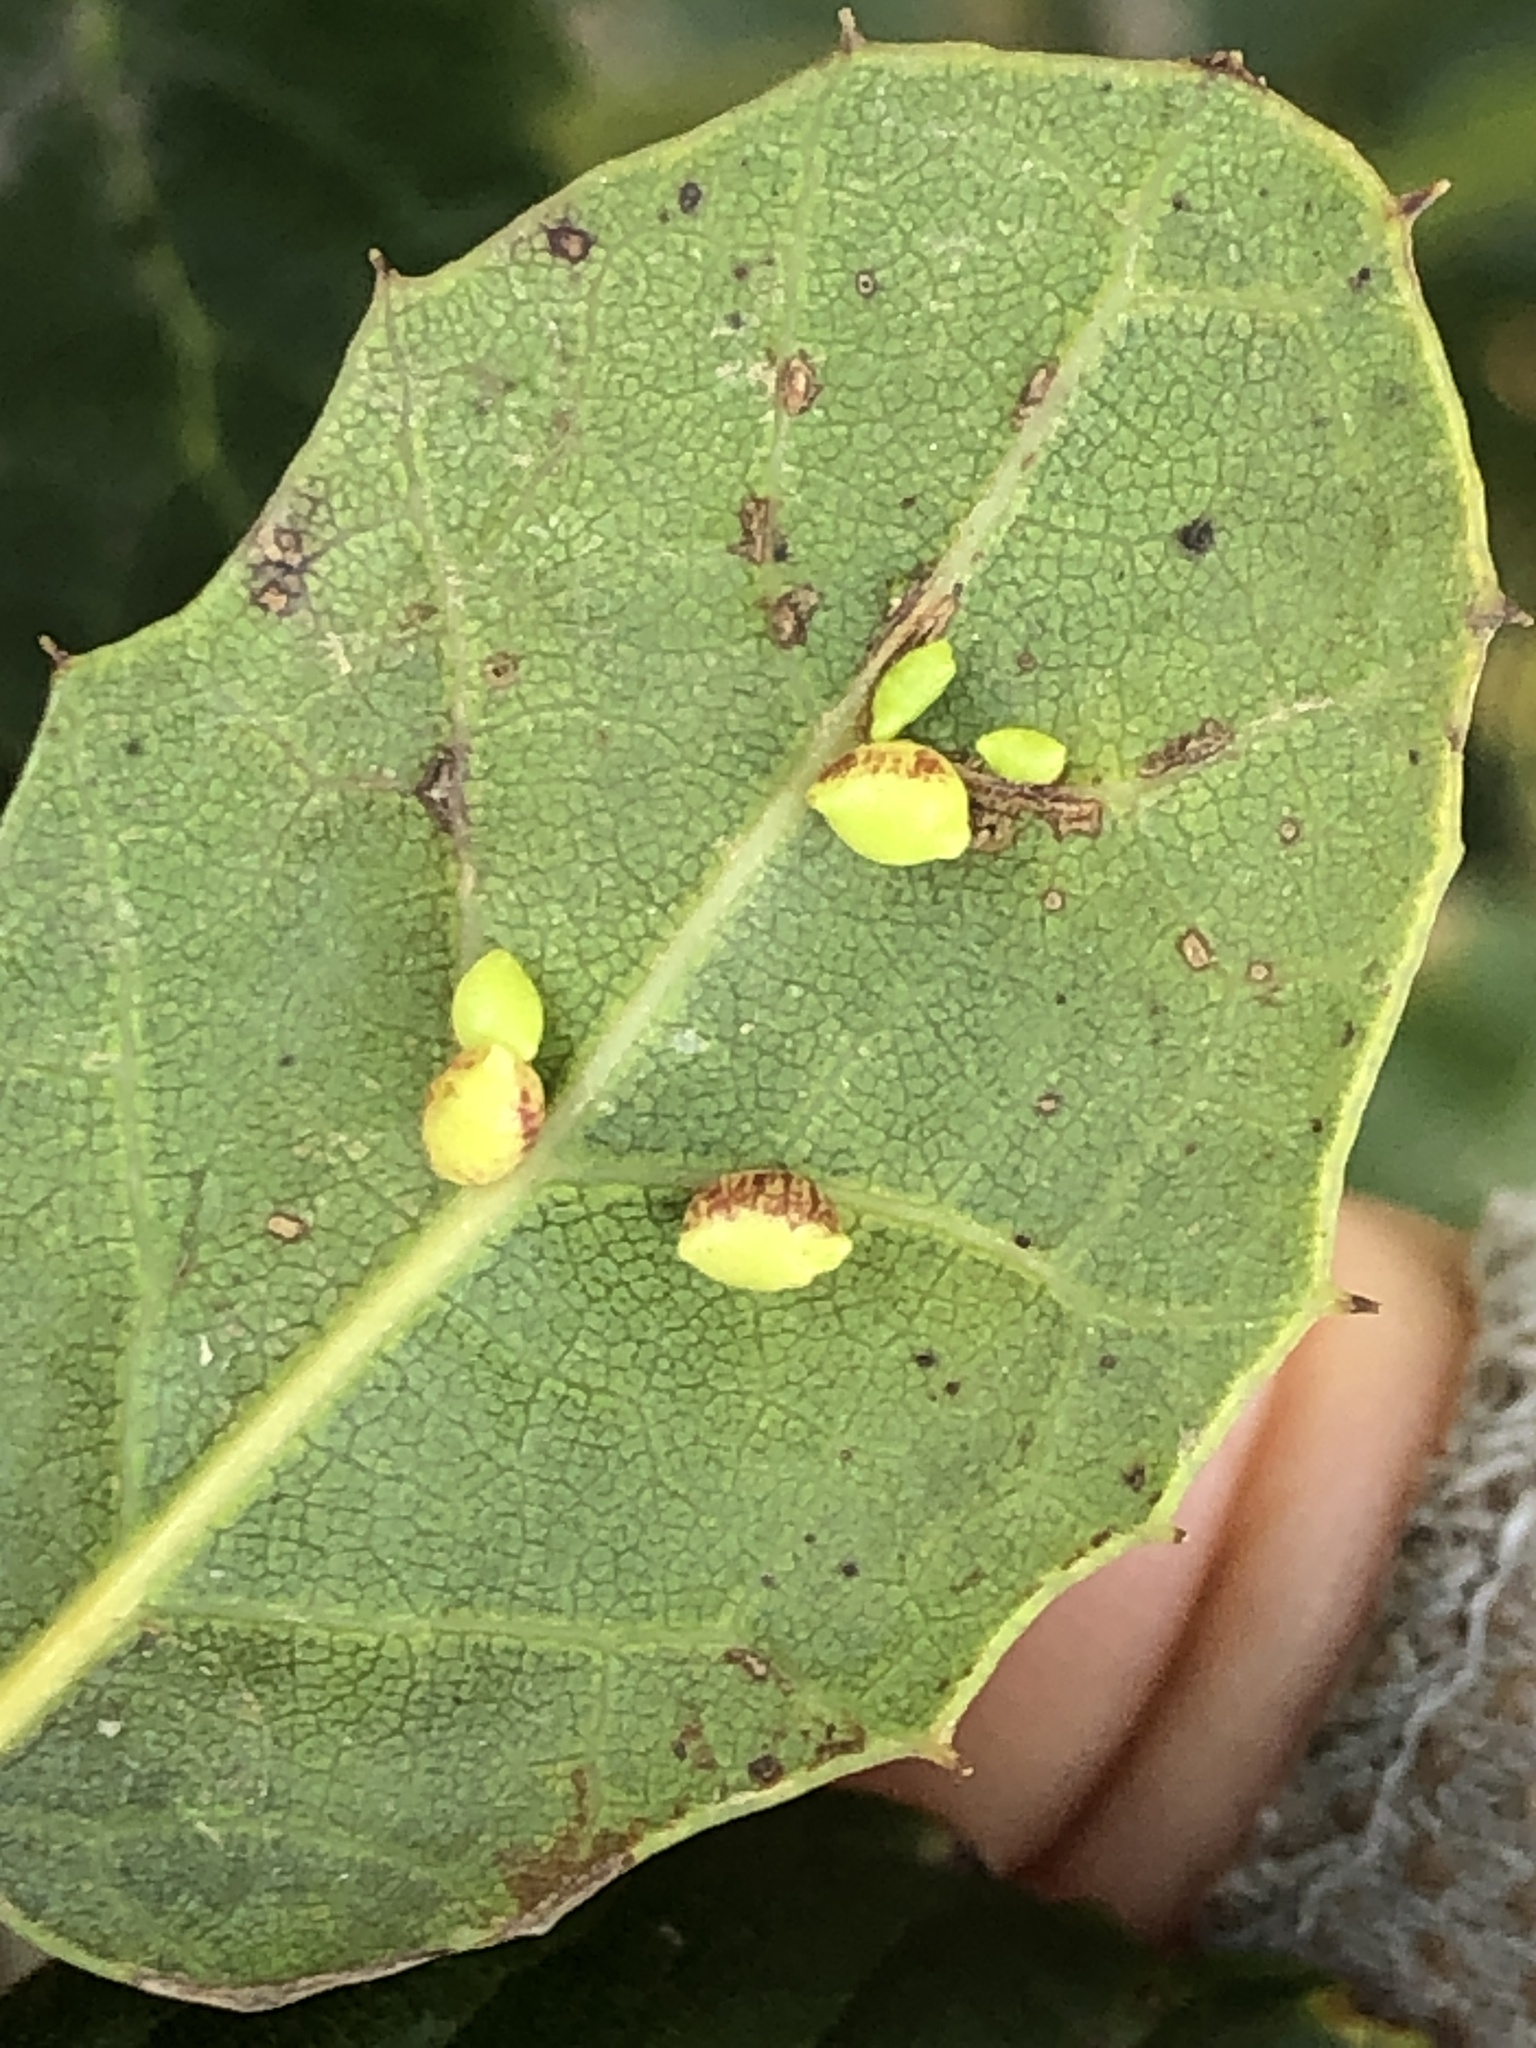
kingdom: Animalia
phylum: Arthropoda
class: Insecta
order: Hymenoptera
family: Cynipidae
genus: Dryocosmus
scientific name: Dryocosmus
